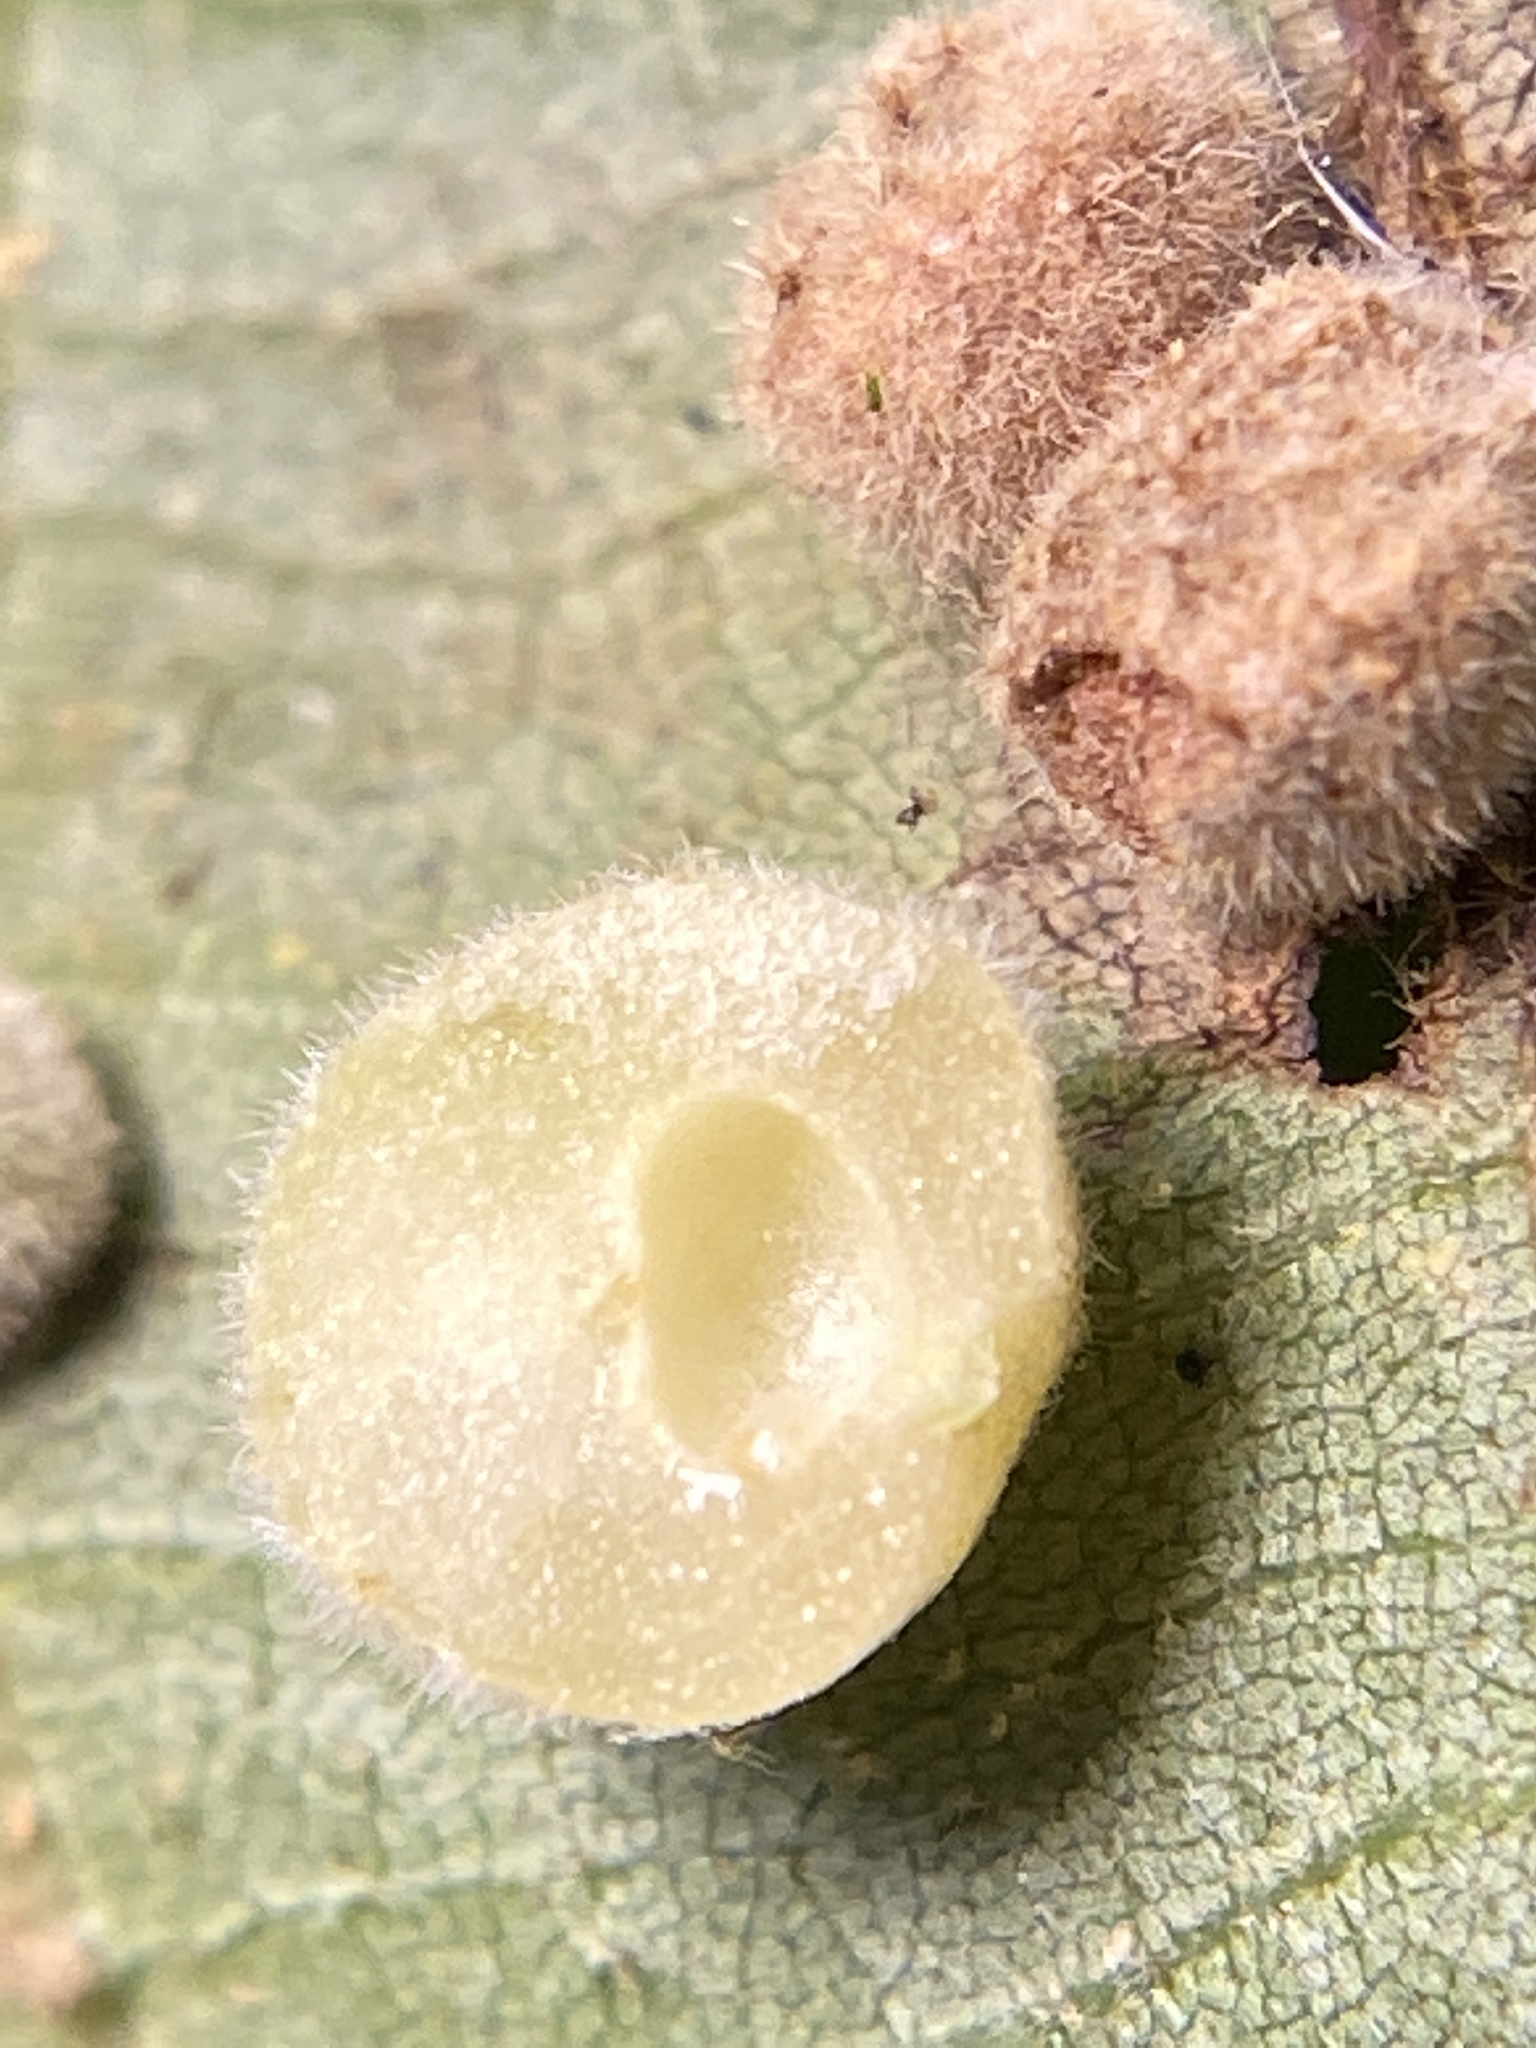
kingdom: Animalia
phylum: Arthropoda
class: Insecta
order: Diptera
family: Cecidomyiidae
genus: Caryomyia
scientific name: Caryomyia persicoides
